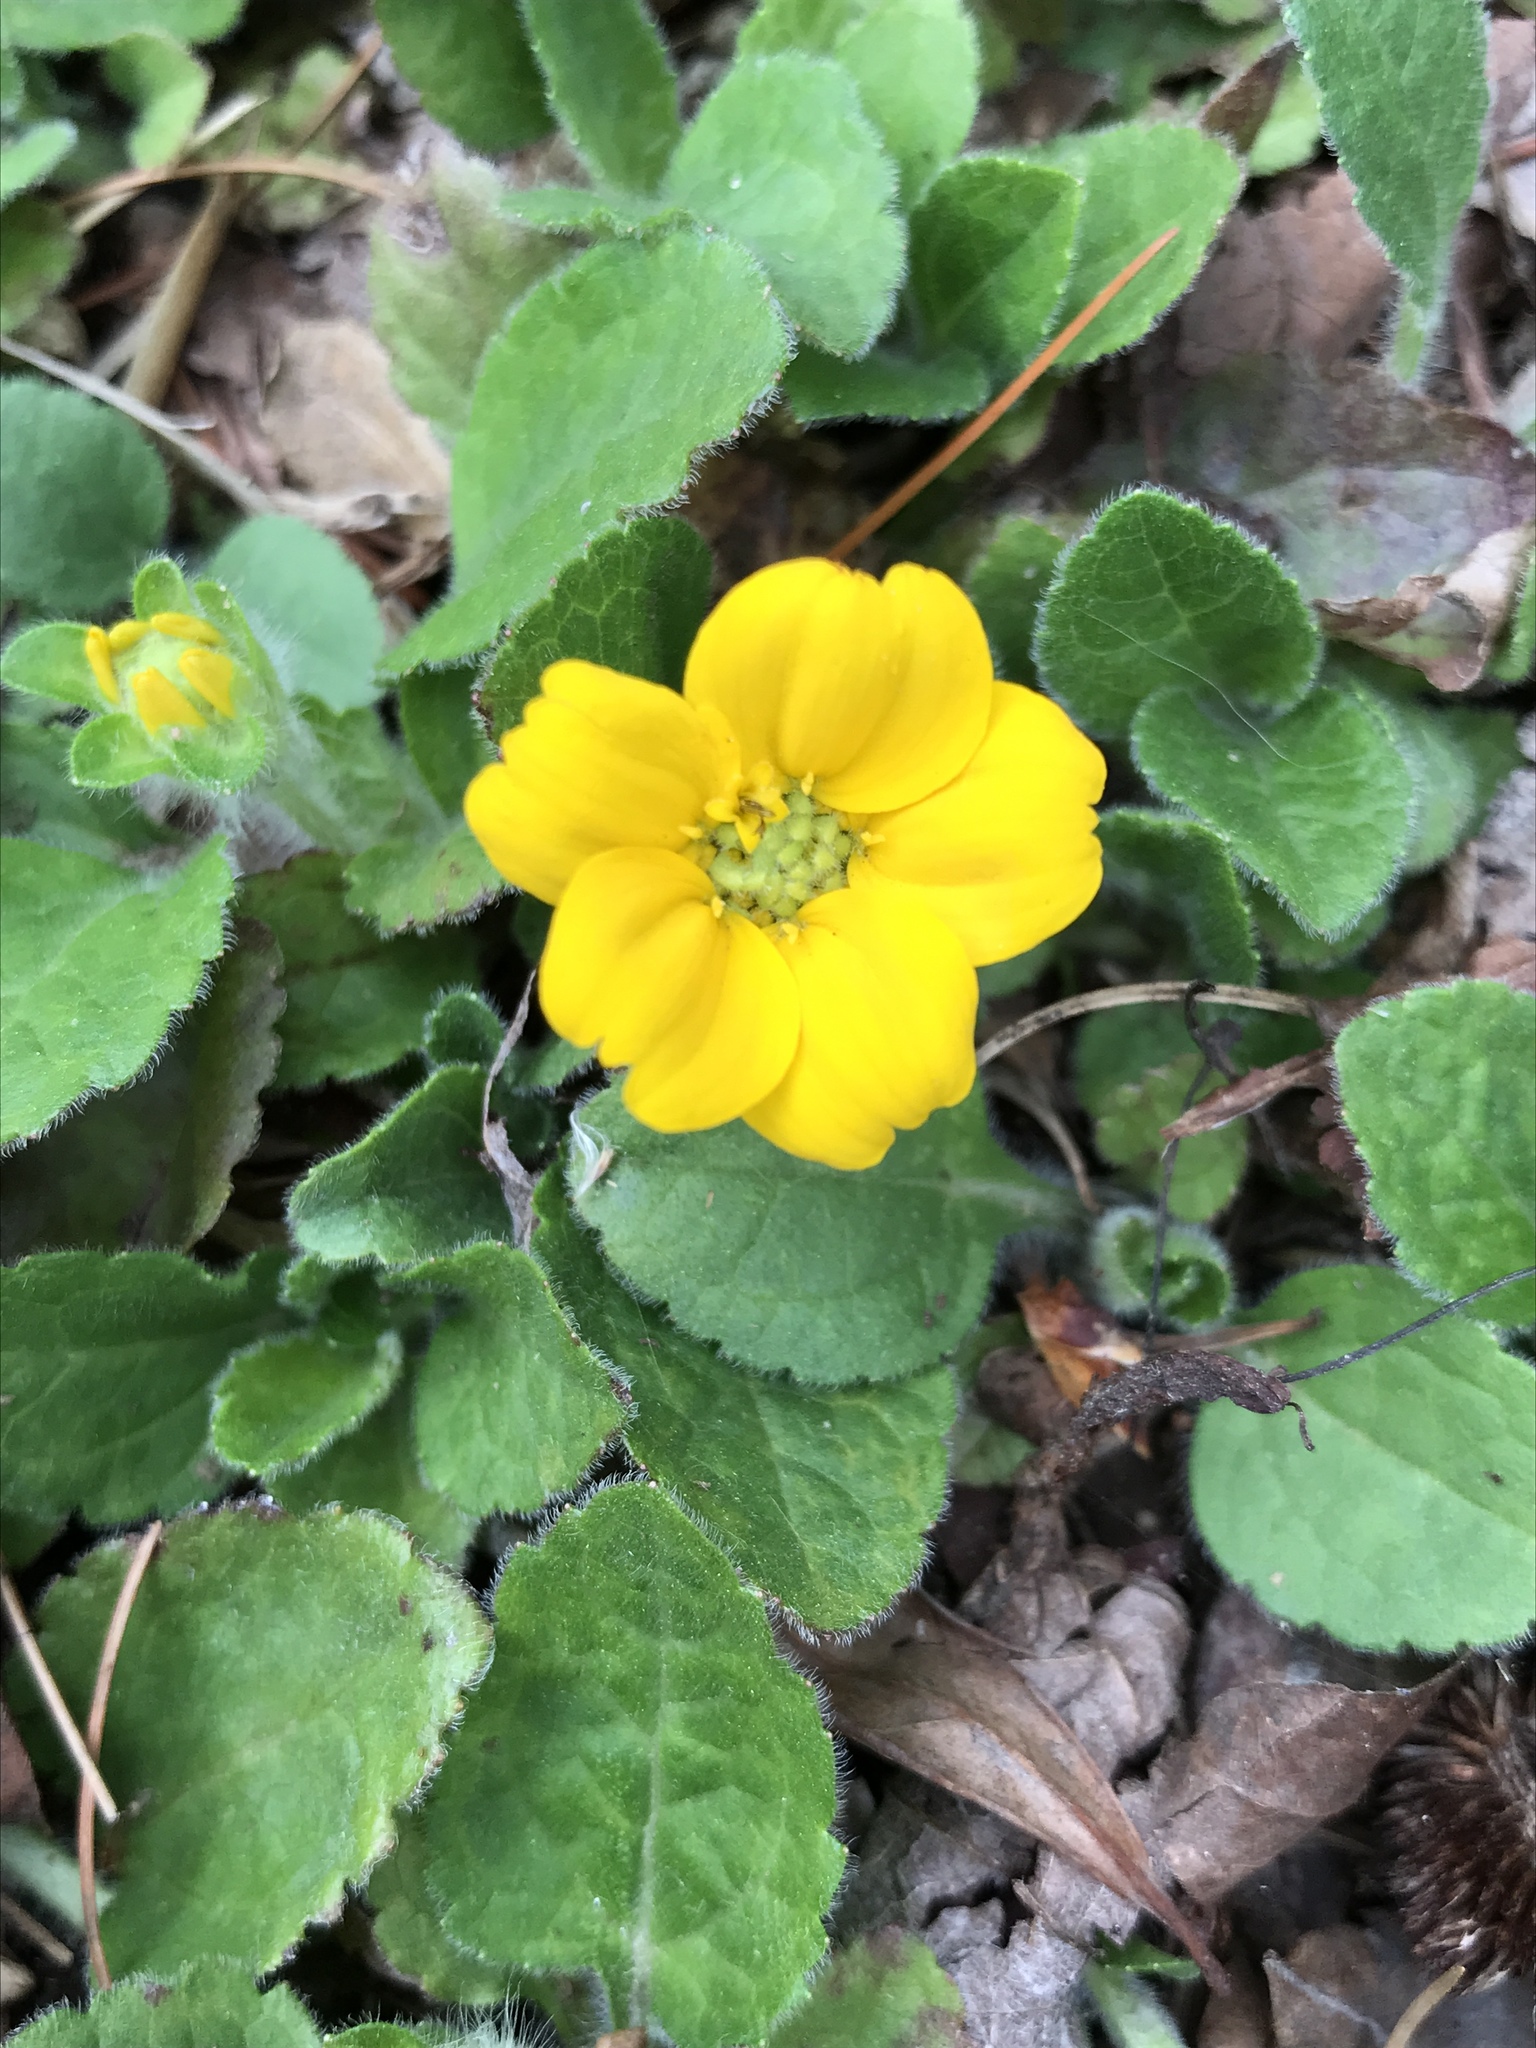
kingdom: Plantae
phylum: Tracheophyta
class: Magnoliopsida
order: Asterales
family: Asteraceae
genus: Chrysogonum
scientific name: Chrysogonum virginianum
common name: Golden-knee
